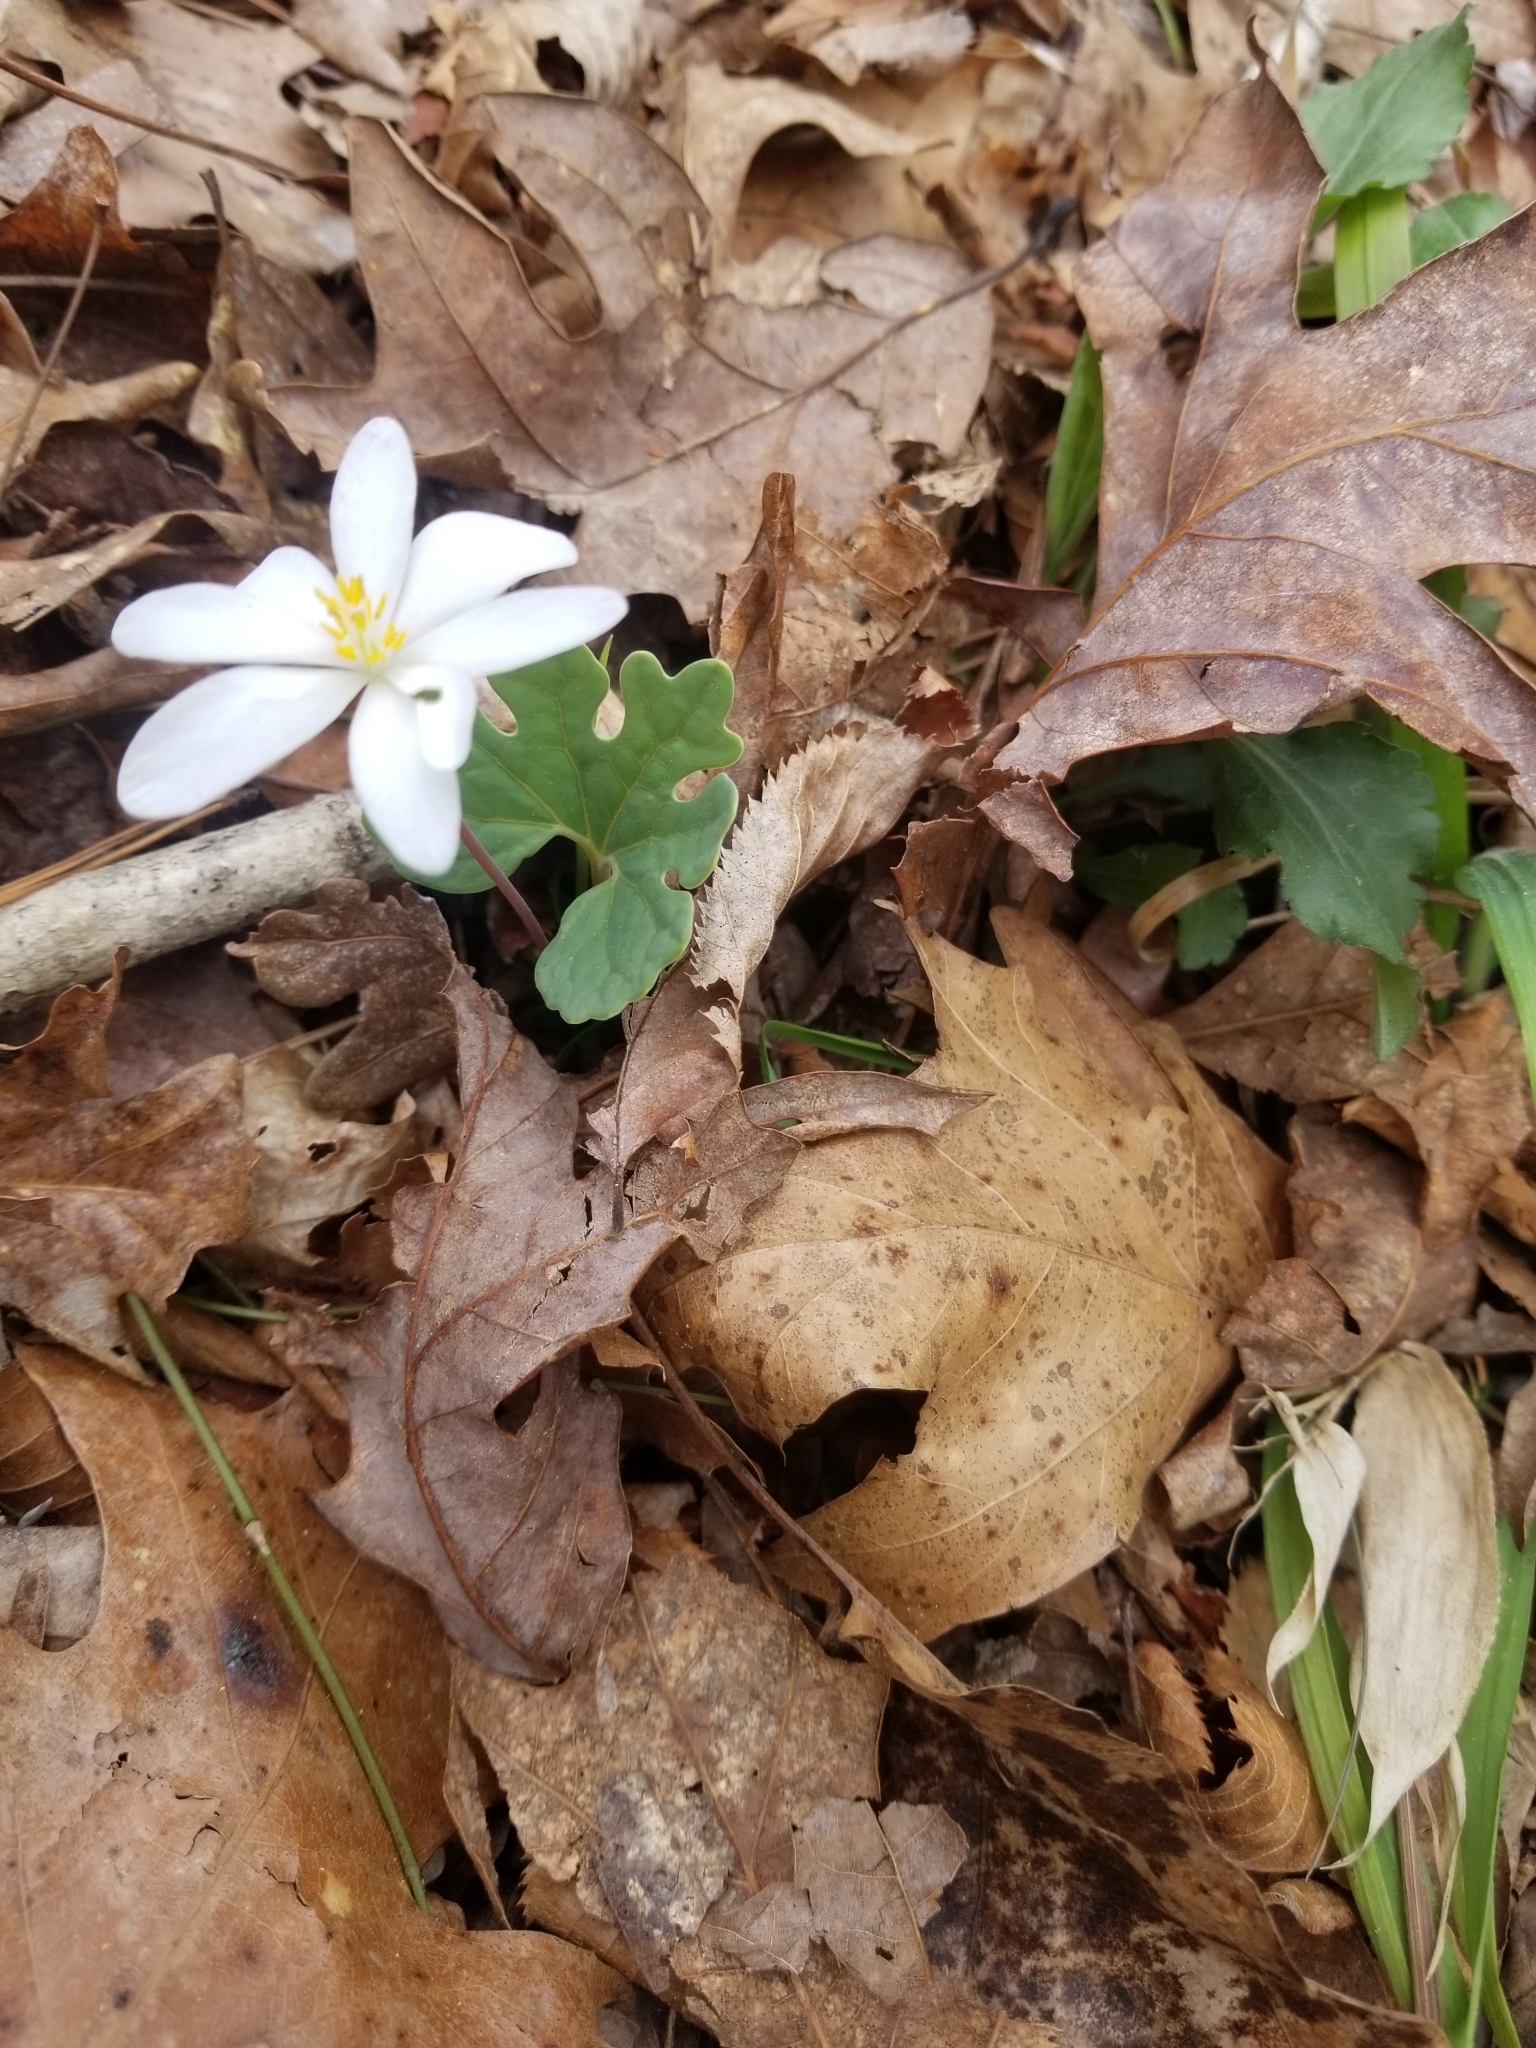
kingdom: Plantae
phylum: Tracheophyta
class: Magnoliopsida
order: Ranunculales
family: Papaveraceae
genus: Sanguinaria
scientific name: Sanguinaria canadensis
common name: Bloodroot
